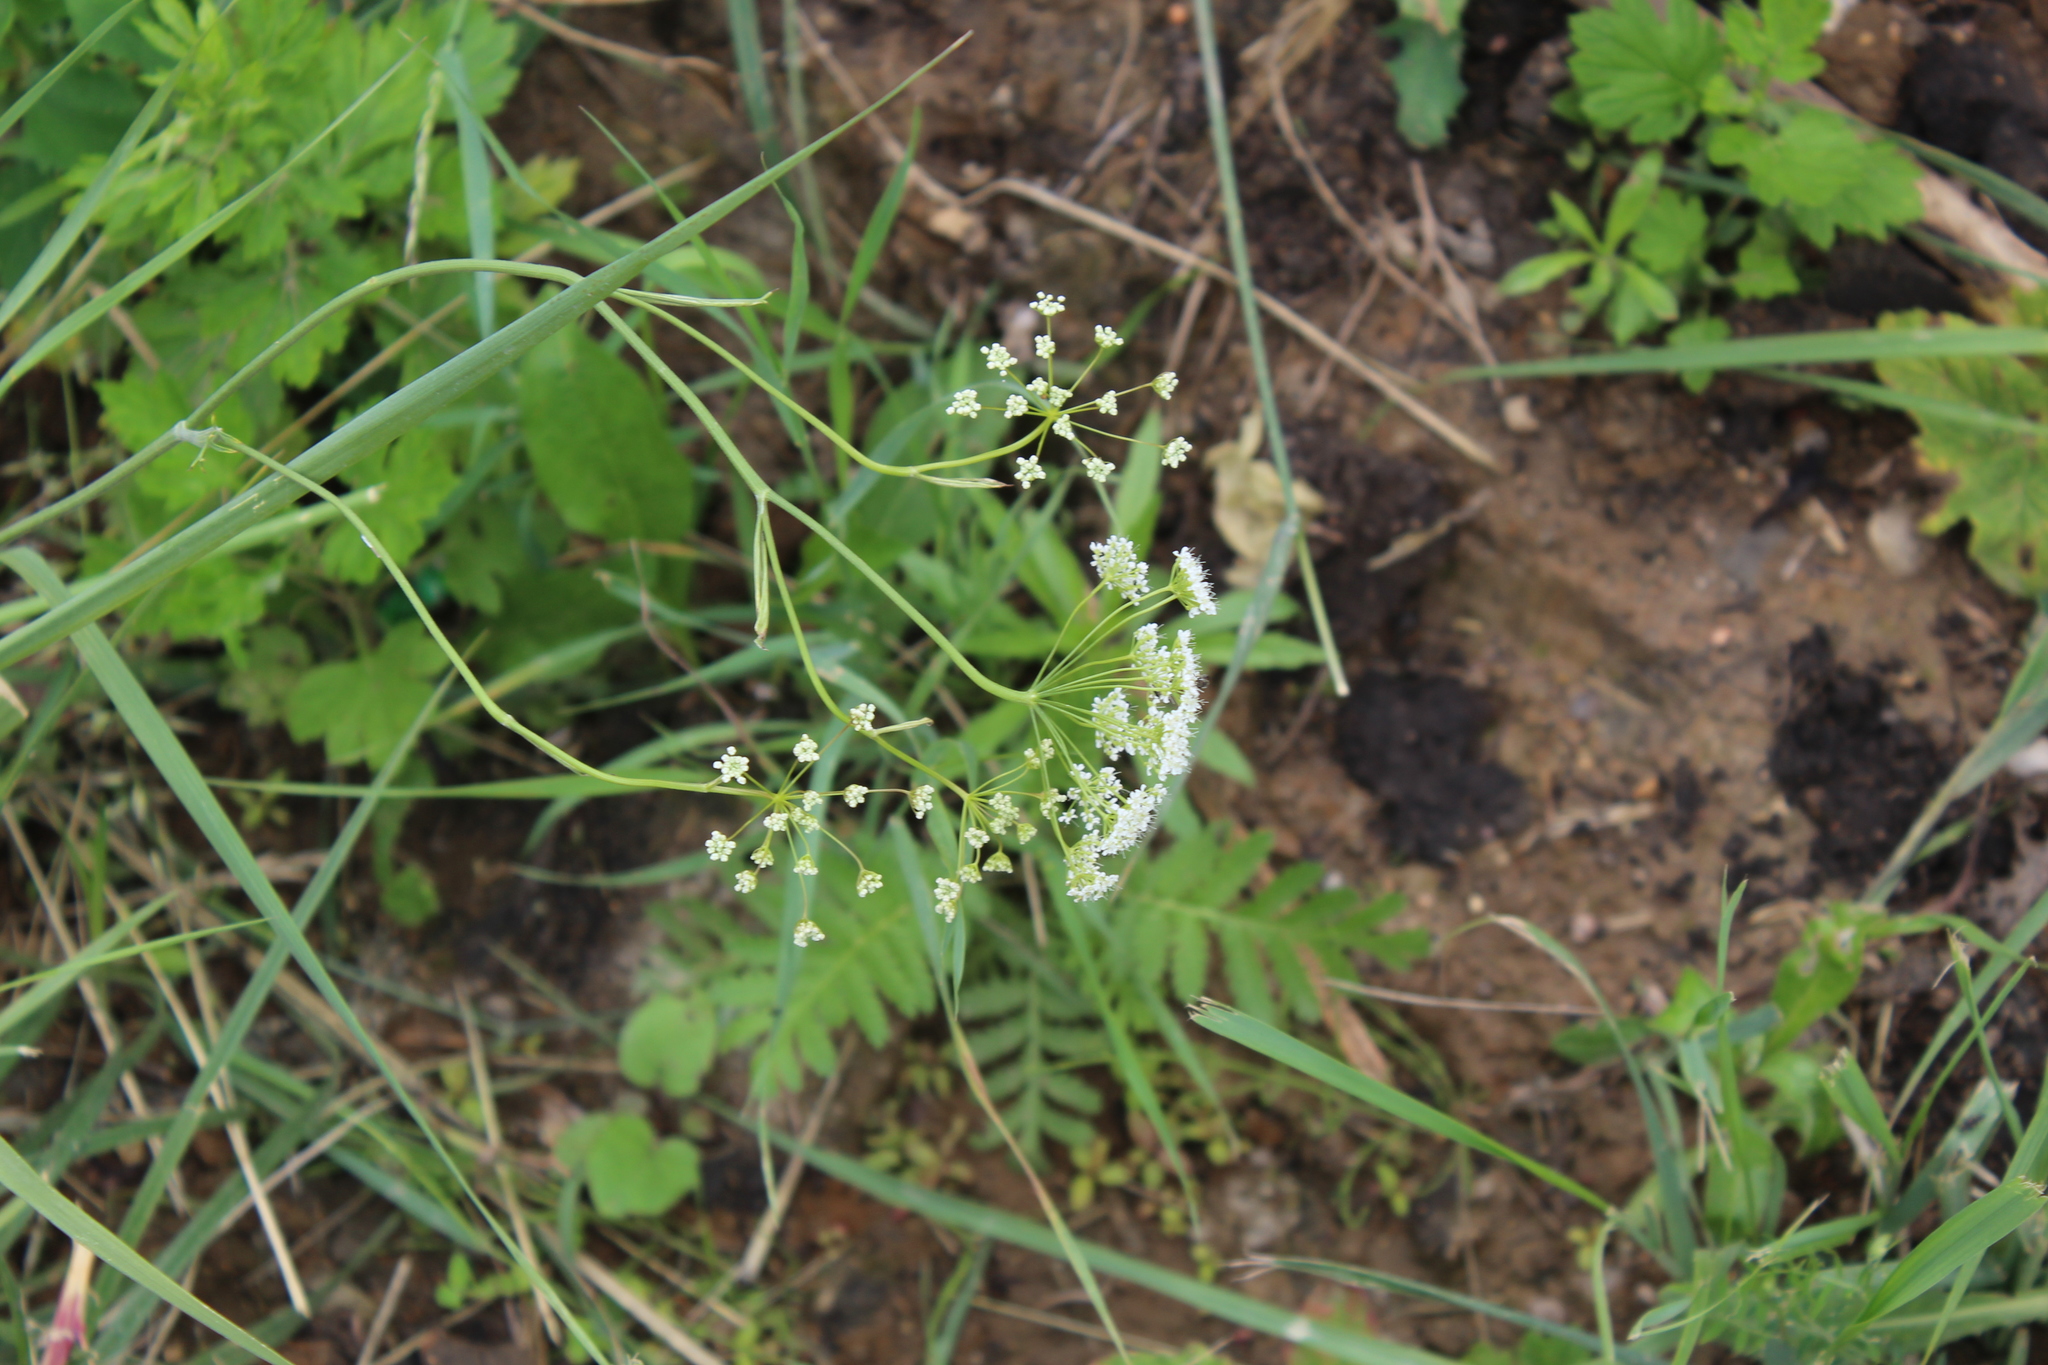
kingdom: Plantae
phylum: Tracheophyta
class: Magnoliopsida
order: Apiales
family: Apiaceae
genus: Pimpinella
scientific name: Pimpinella saxifraga
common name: Burnet-saxifrage
